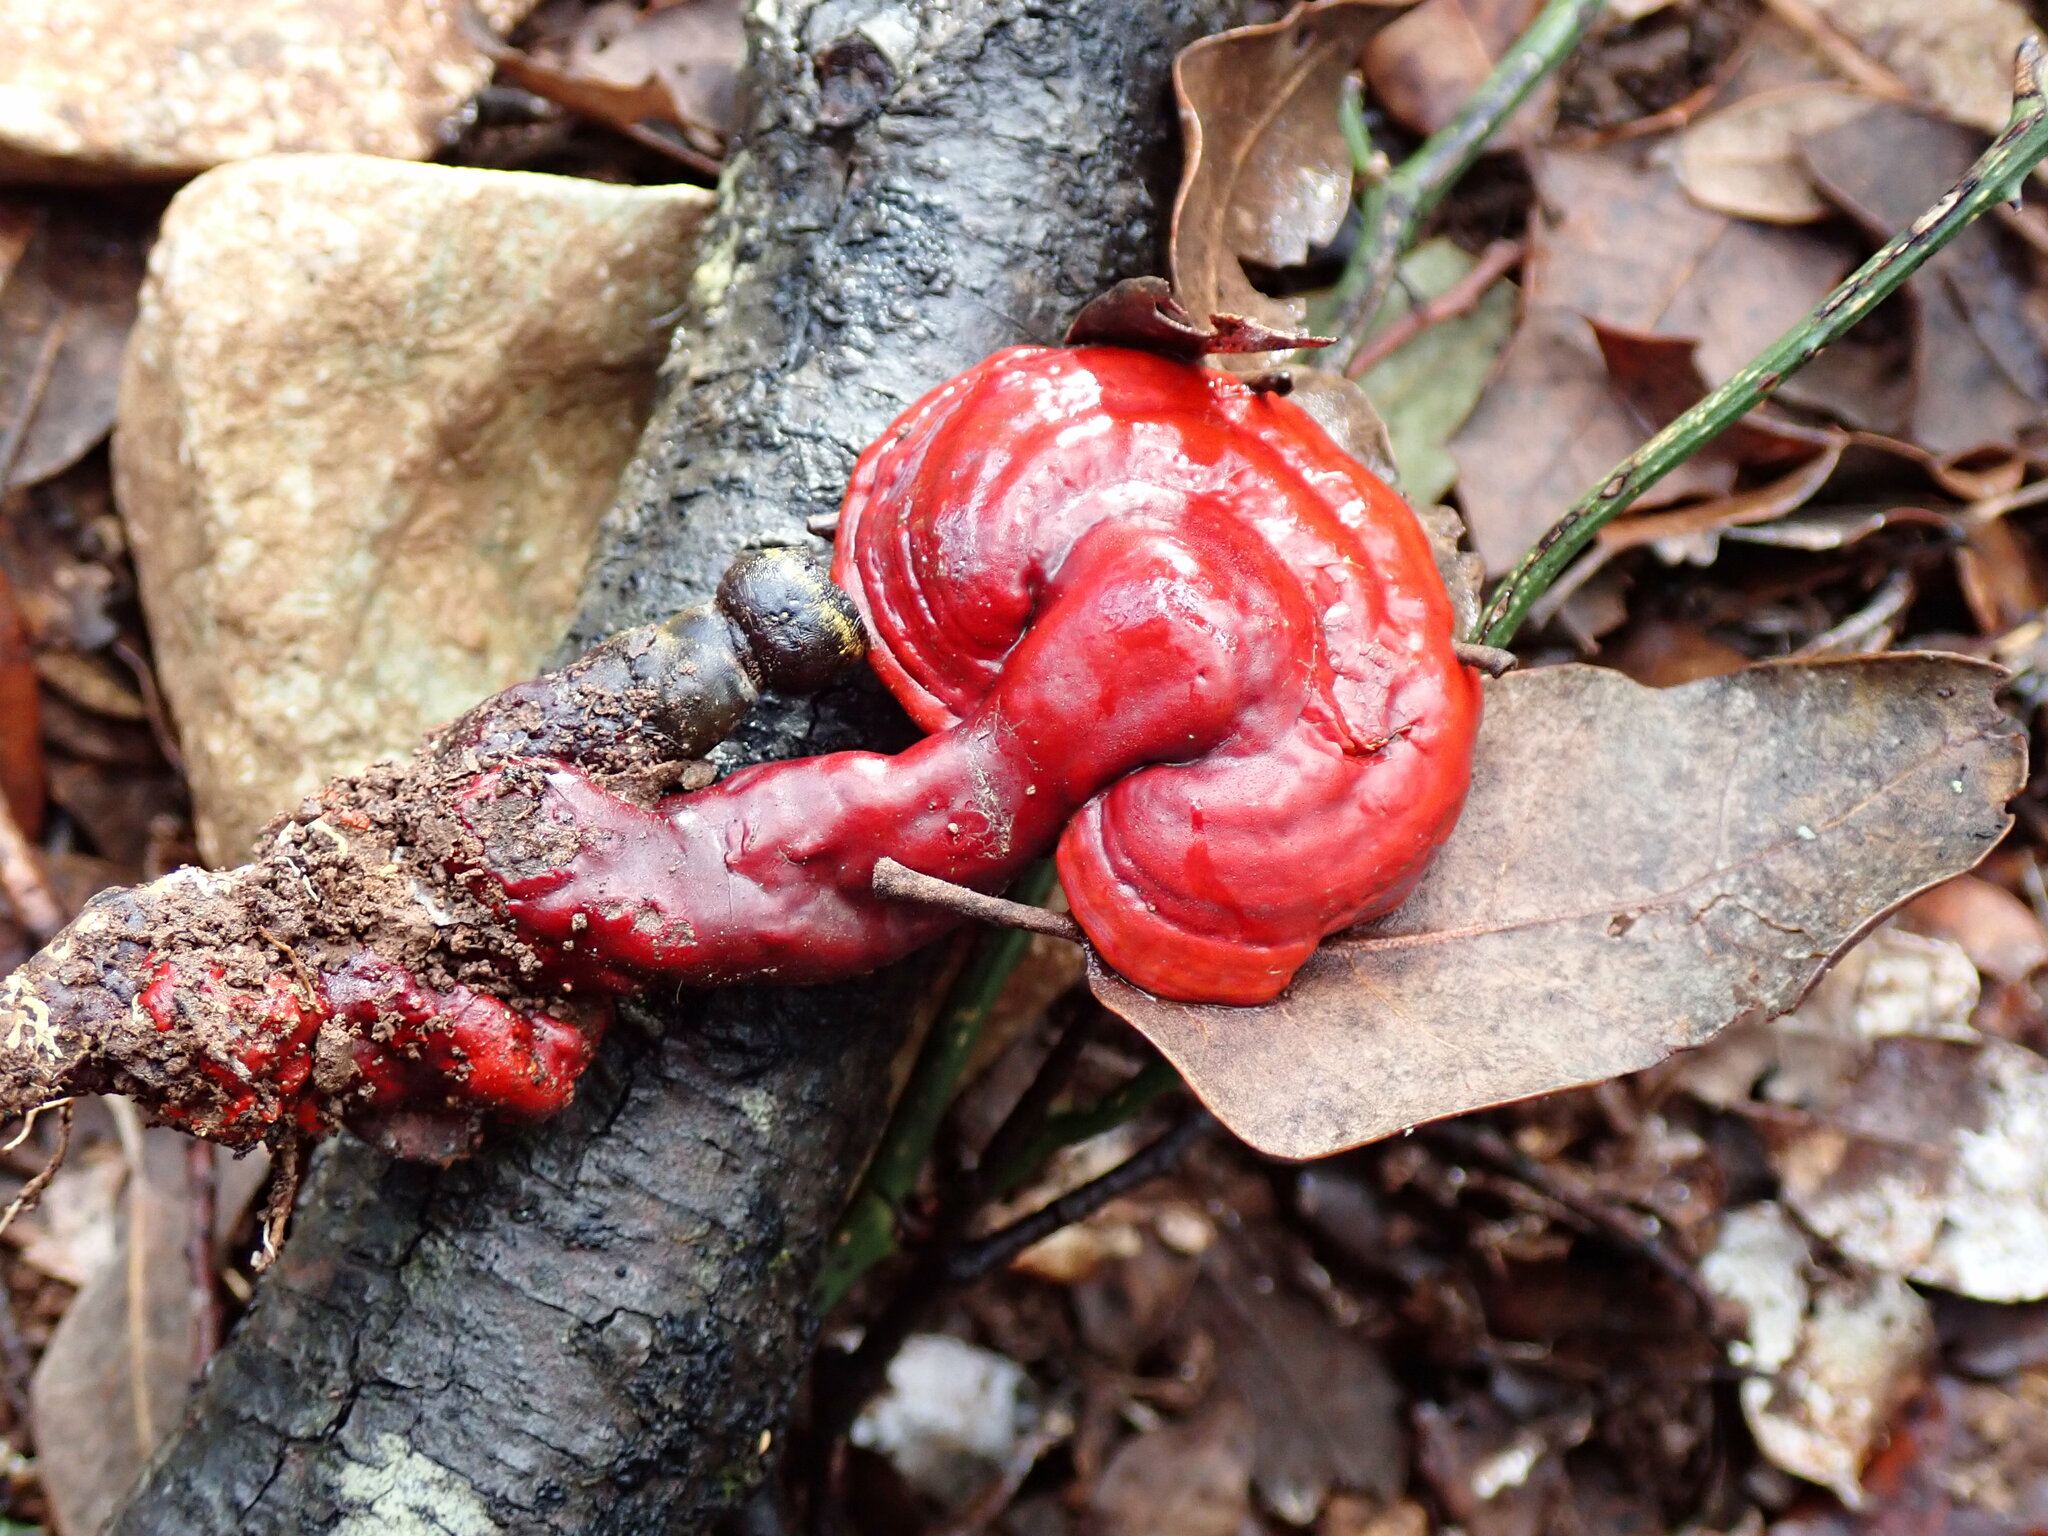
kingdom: Fungi
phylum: Basidiomycota
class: Agaricomycetes
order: Polyporales
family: Polyporaceae
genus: Ganoderma
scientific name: Ganoderma lucidum
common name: Lacquered bracket
